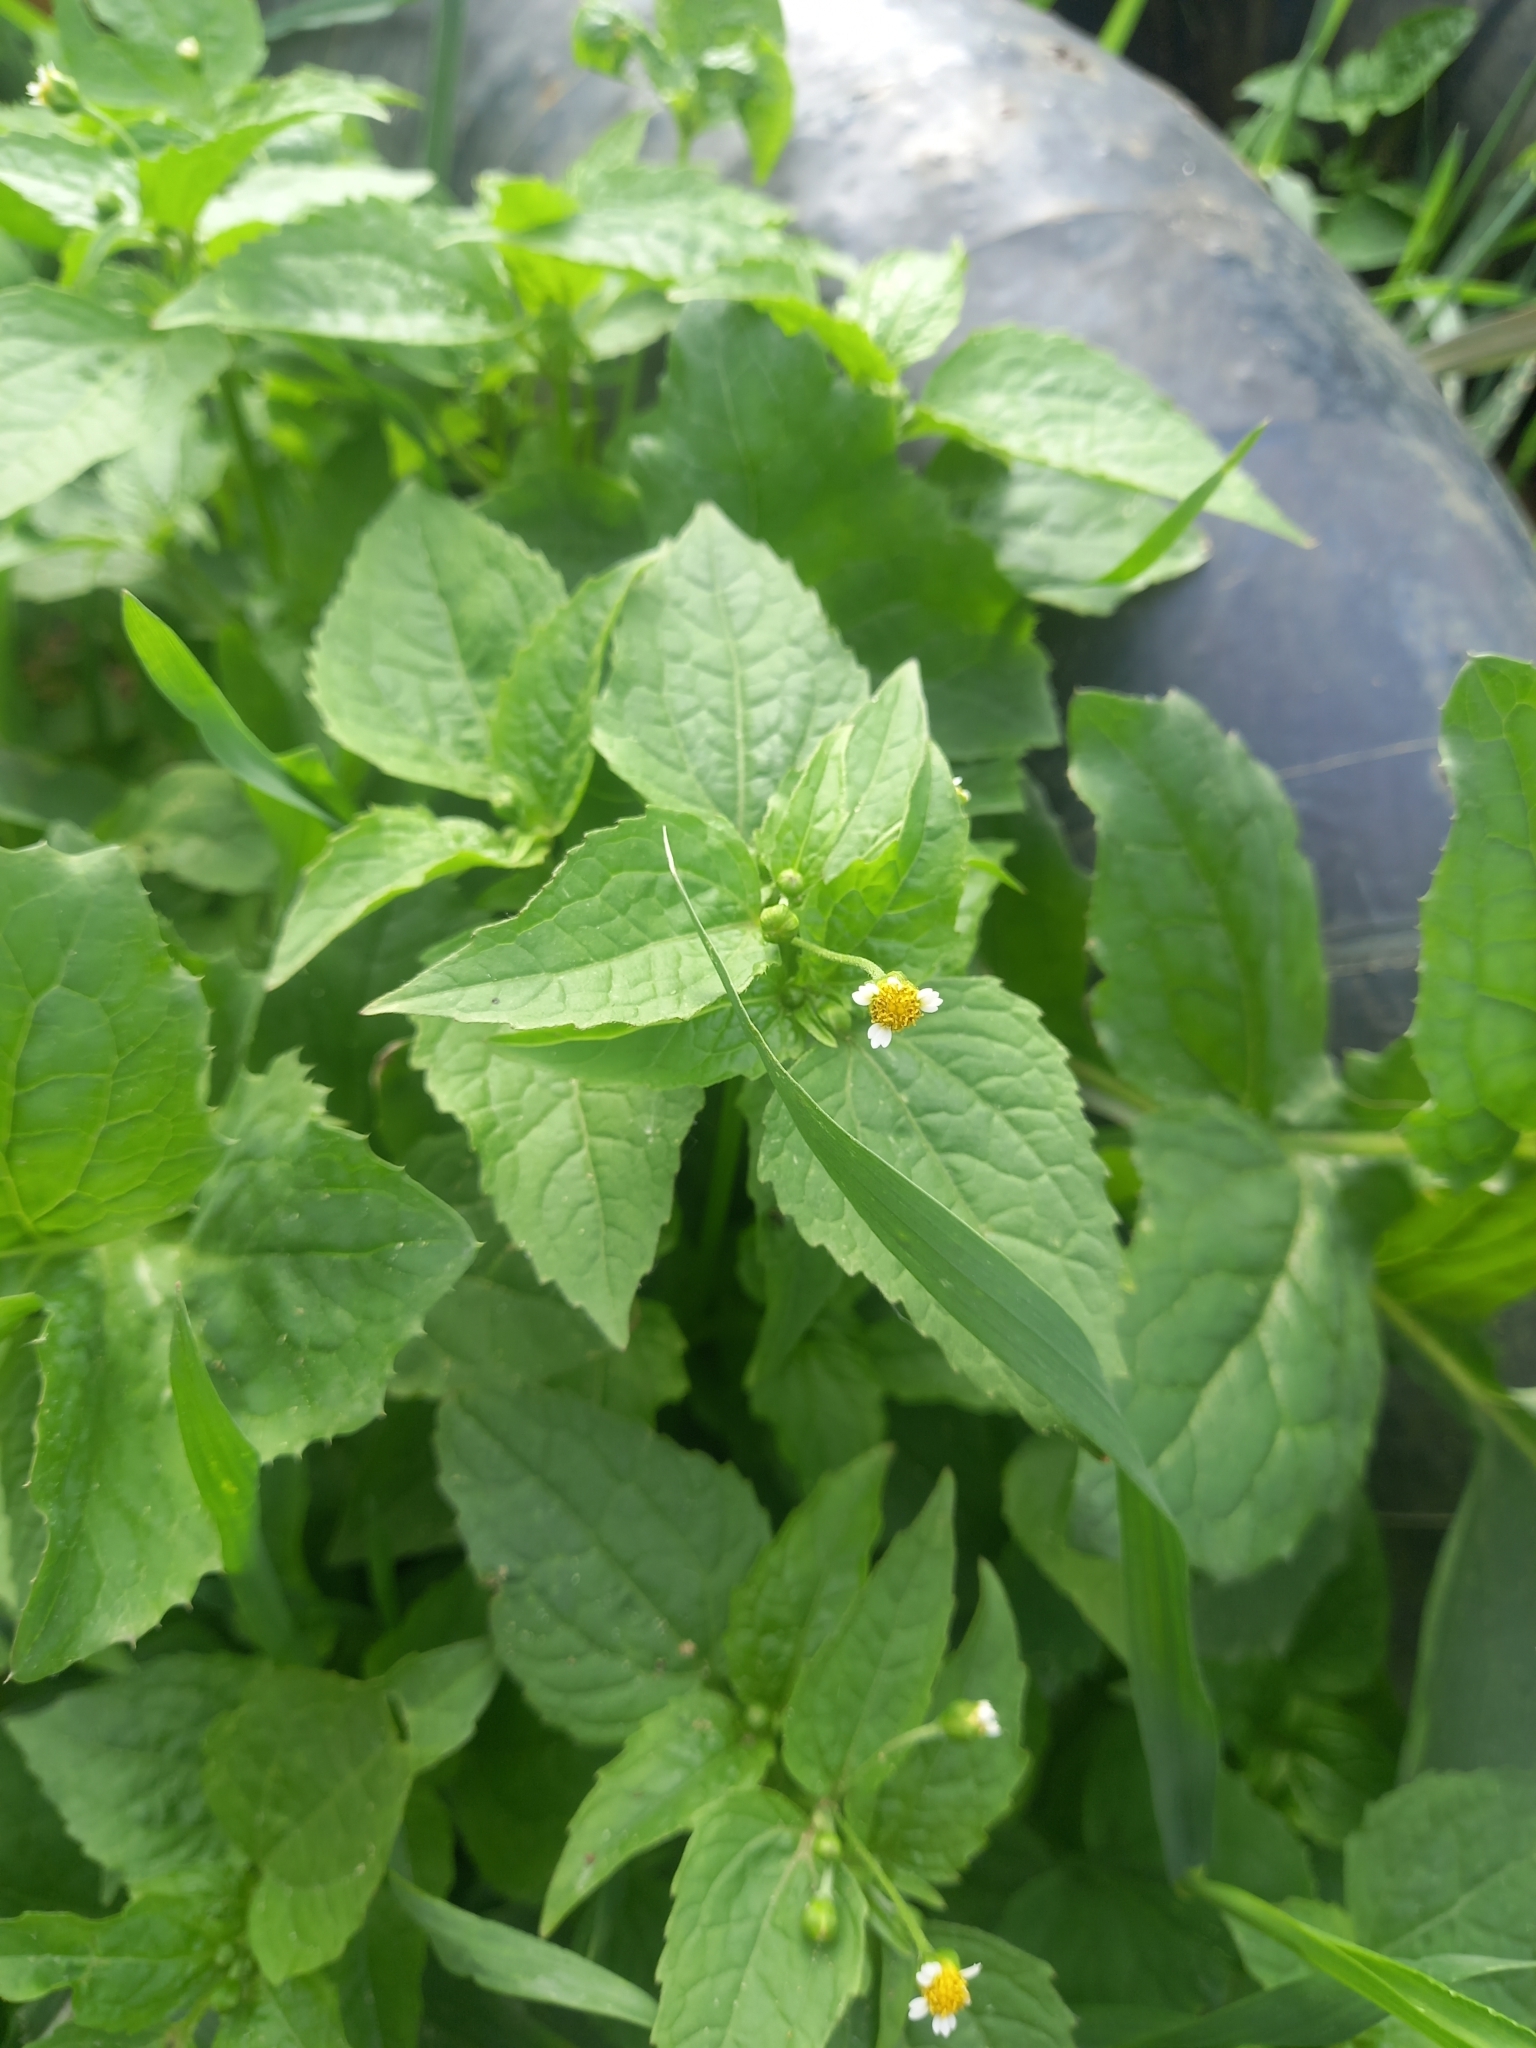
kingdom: Plantae
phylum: Tracheophyta
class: Magnoliopsida
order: Asterales
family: Asteraceae
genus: Galinsoga
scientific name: Galinsoga parviflora
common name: Gallant soldier
